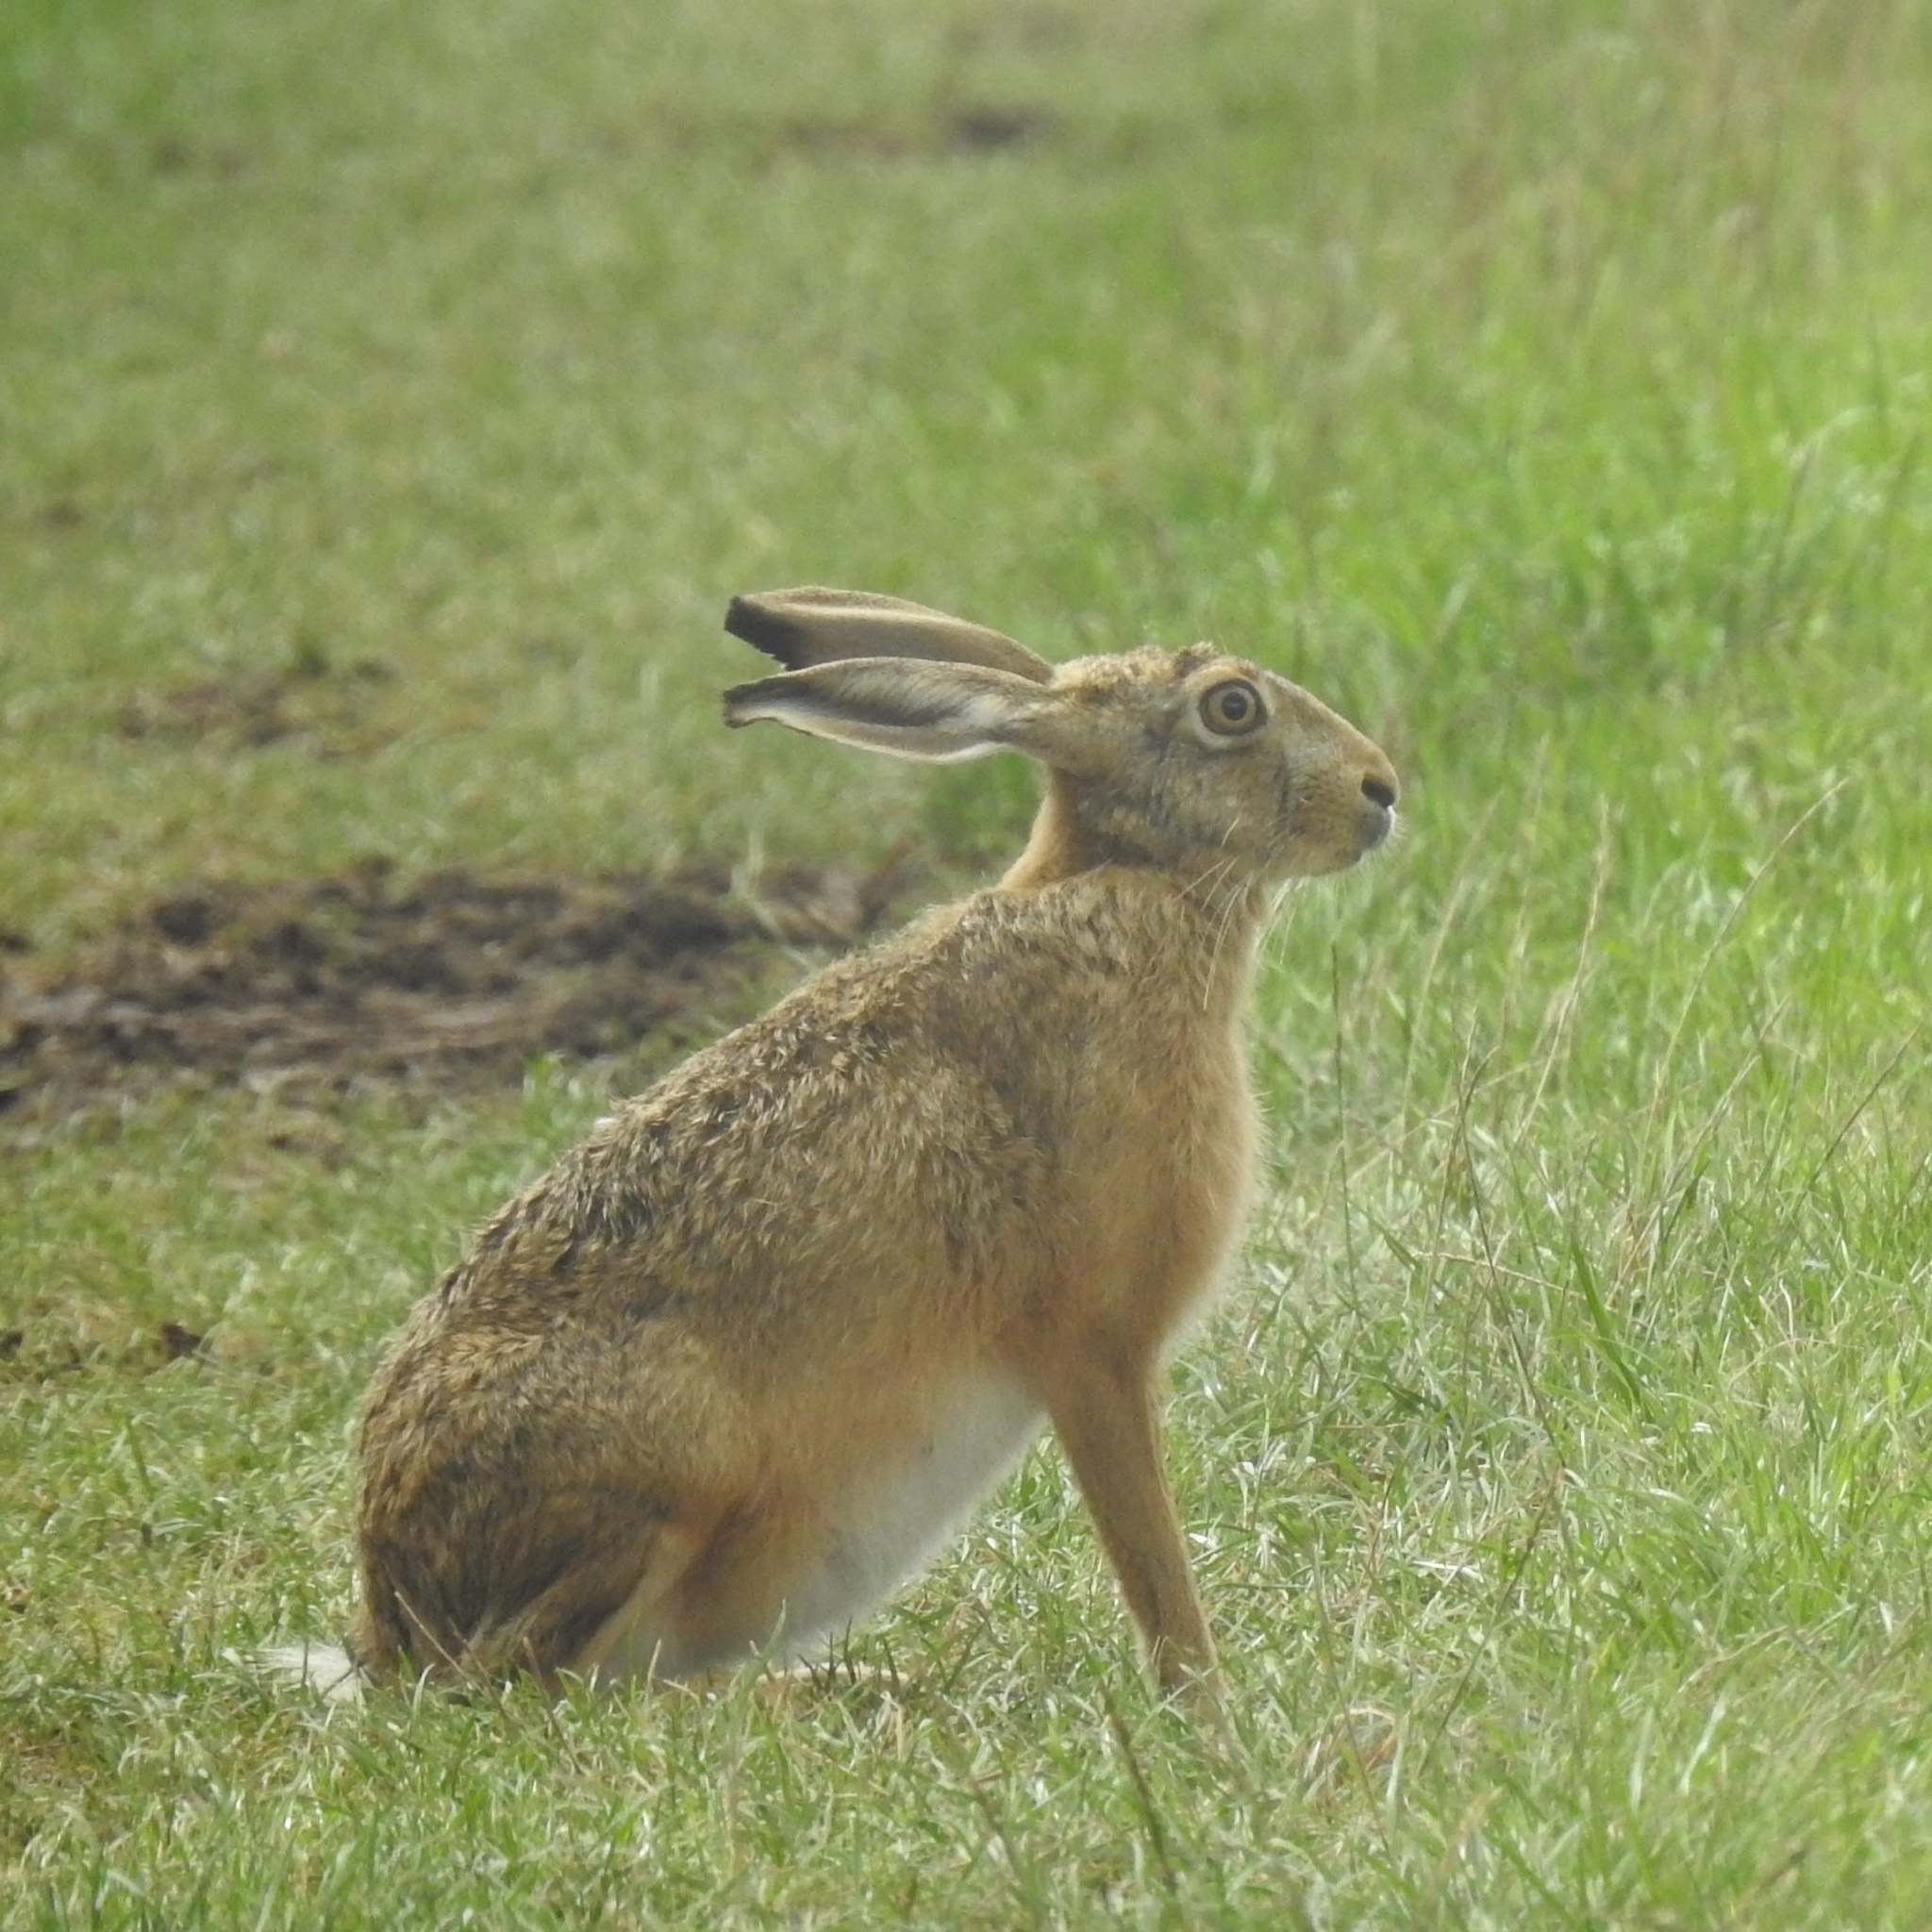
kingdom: Animalia
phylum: Chordata
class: Mammalia
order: Lagomorpha
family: Leporidae
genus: Lepus
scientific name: Lepus europaeus
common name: European hare
